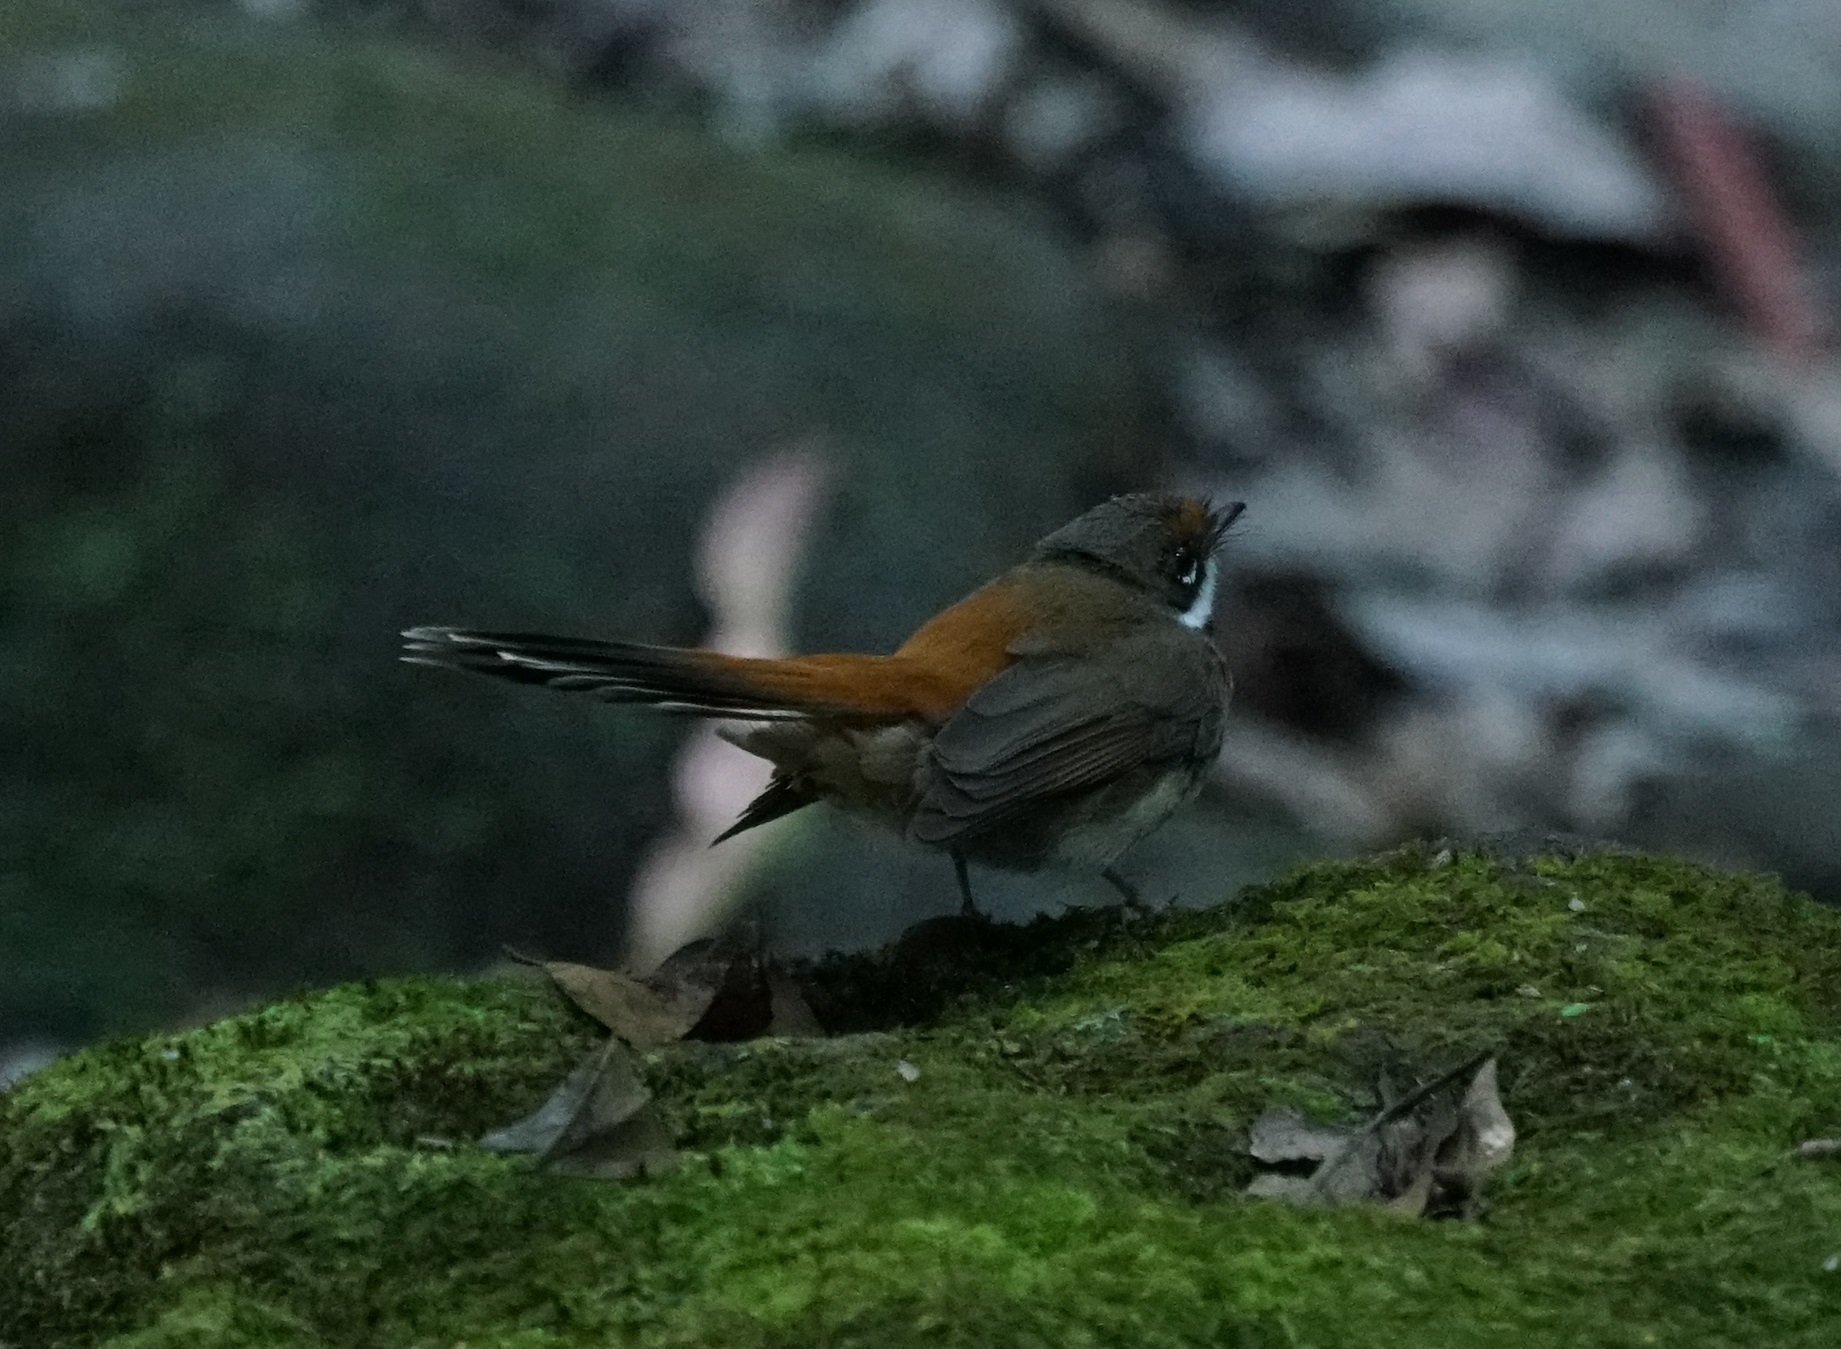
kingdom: Animalia
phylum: Chordata
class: Aves
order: Passeriformes
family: Rhipiduridae
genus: Rhipidura
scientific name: Rhipidura rufifrons
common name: Rufous fantail
